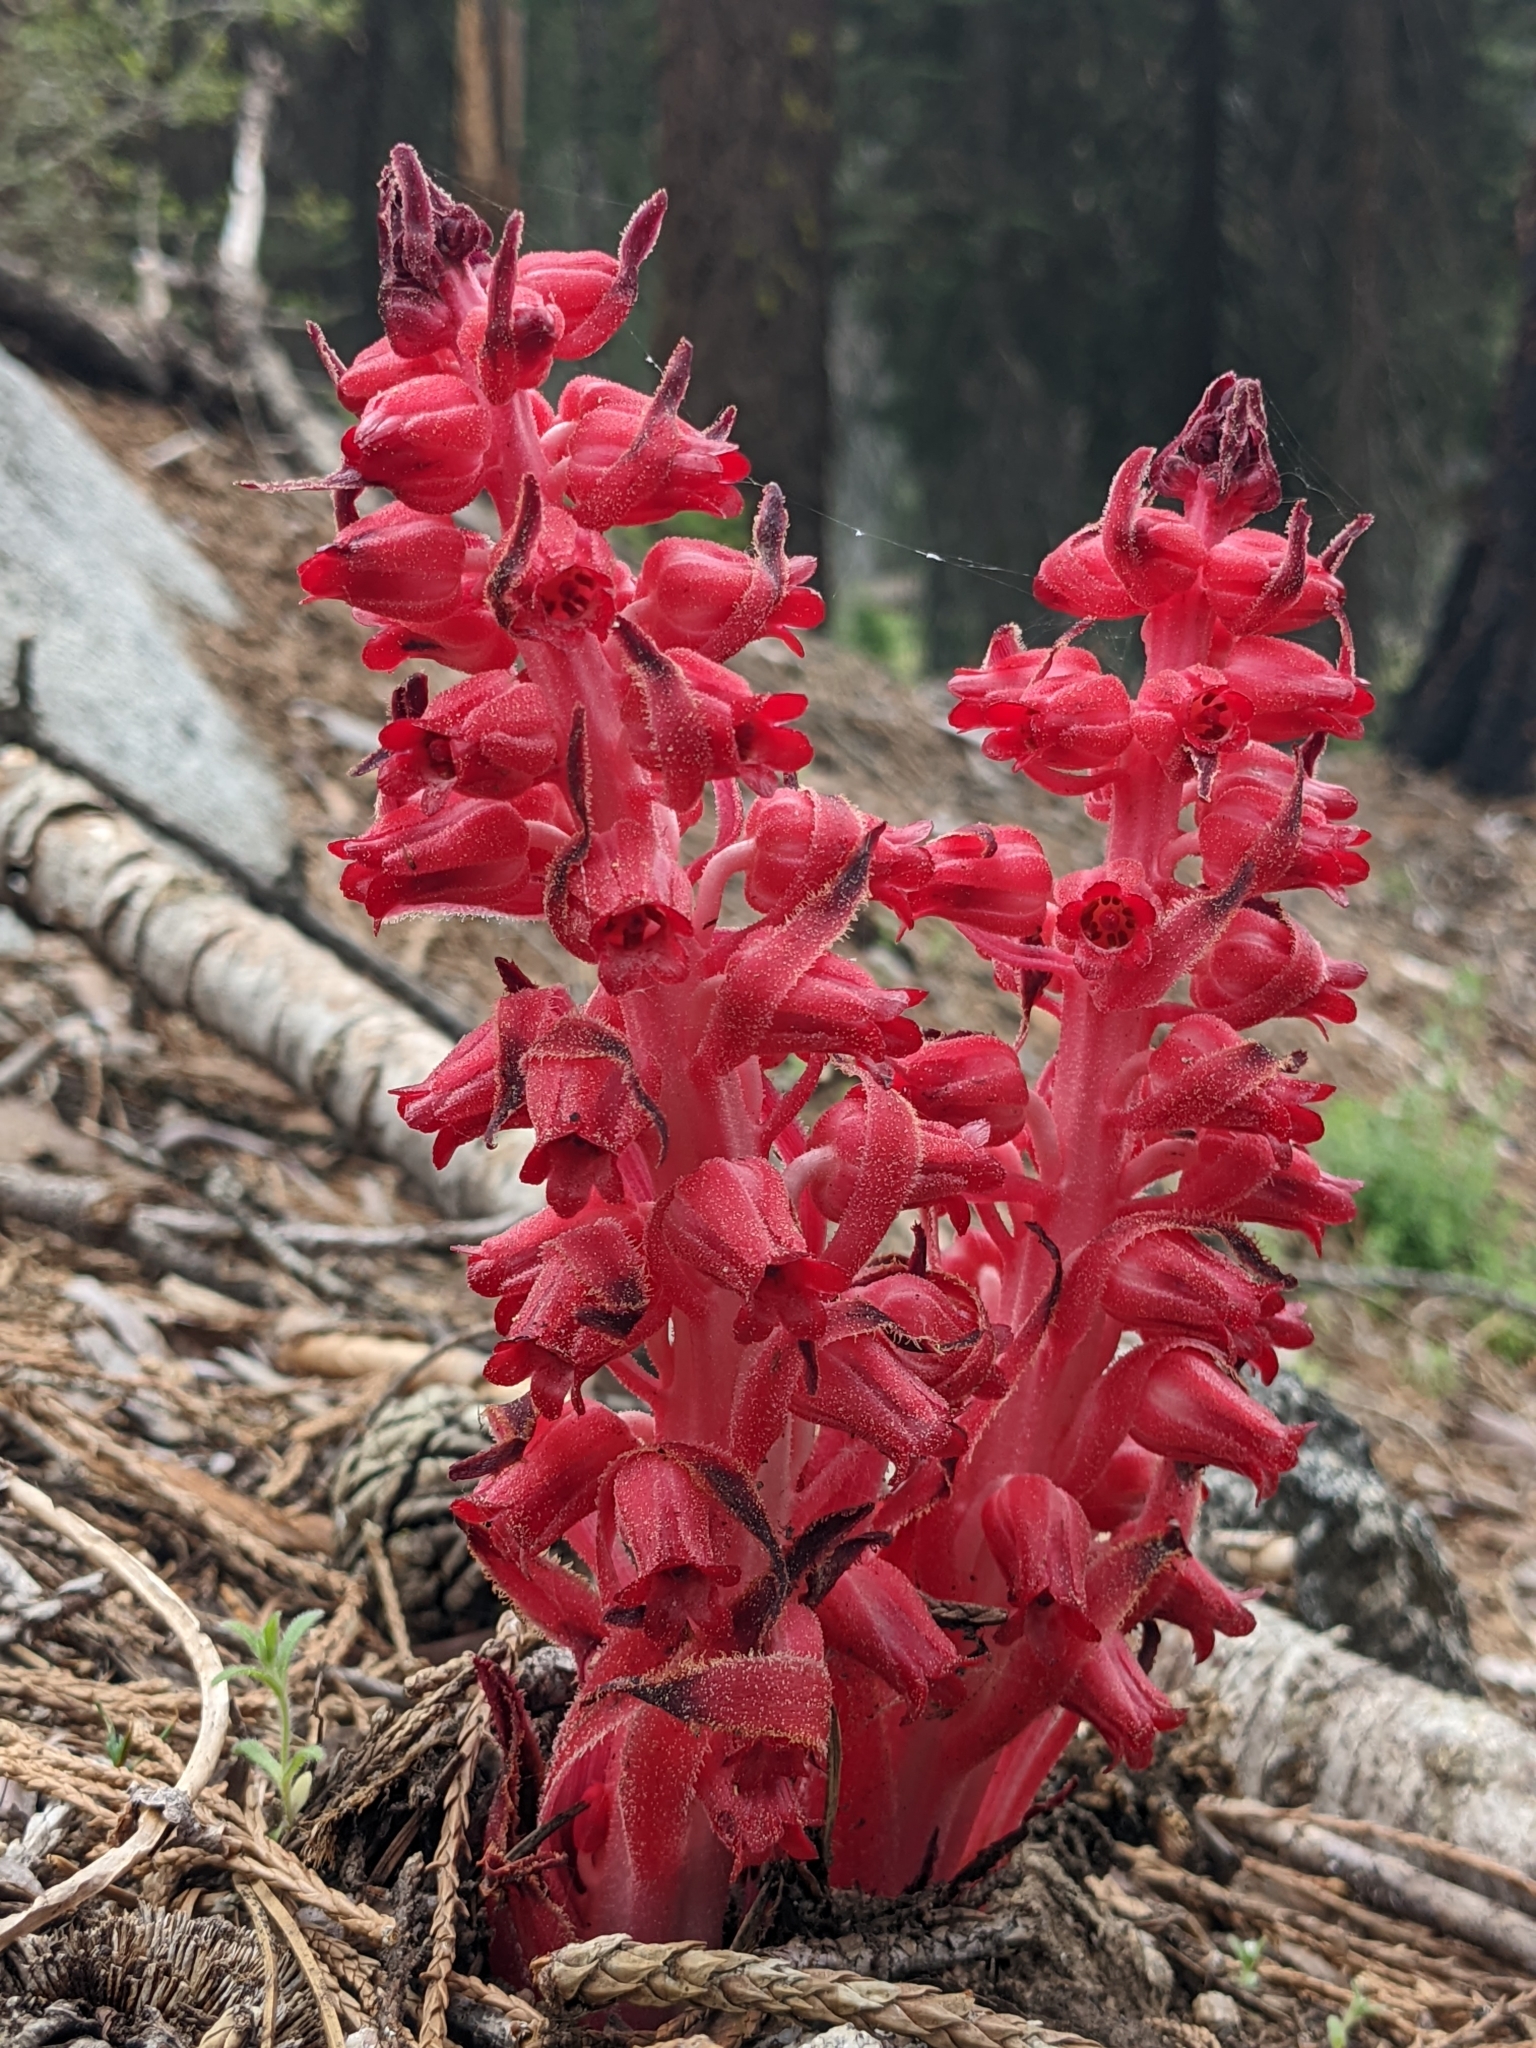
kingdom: Plantae
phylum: Tracheophyta
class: Magnoliopsida
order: Ericales
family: Ericaceae
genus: Sarcodes
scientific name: Sarcodes sanguinea
